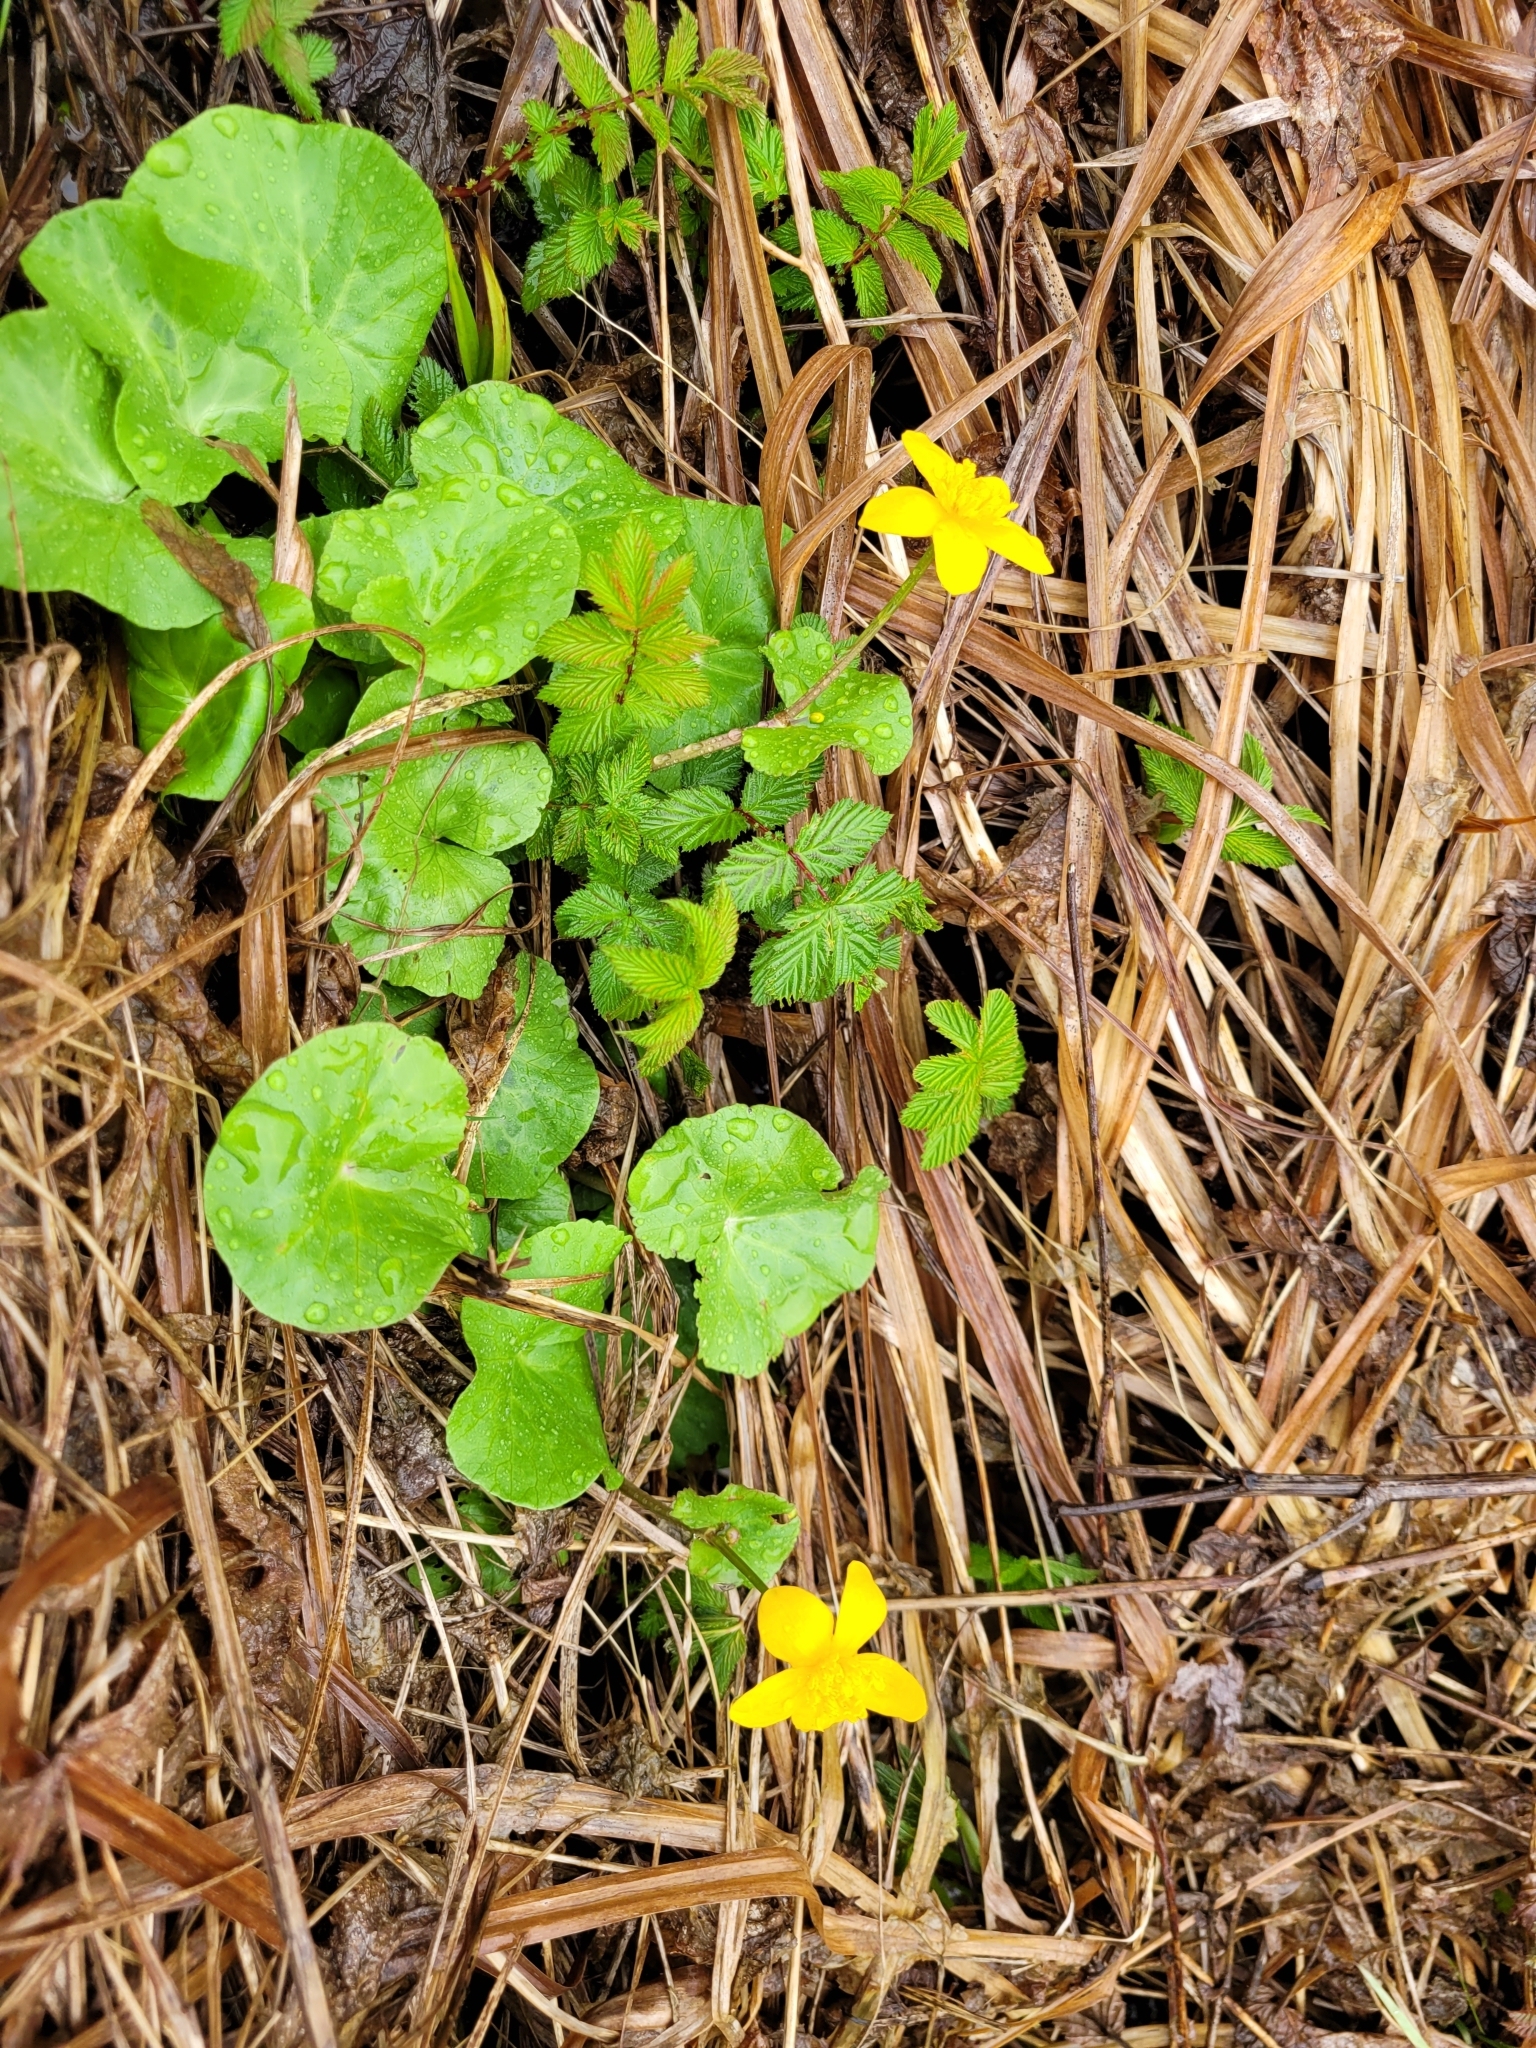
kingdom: Plantae
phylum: Tracheophyta
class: Magnoliopsida
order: Ranunculales
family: Ranunculaceae
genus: Caltha
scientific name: Caltha palustris
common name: Marsh marigold
